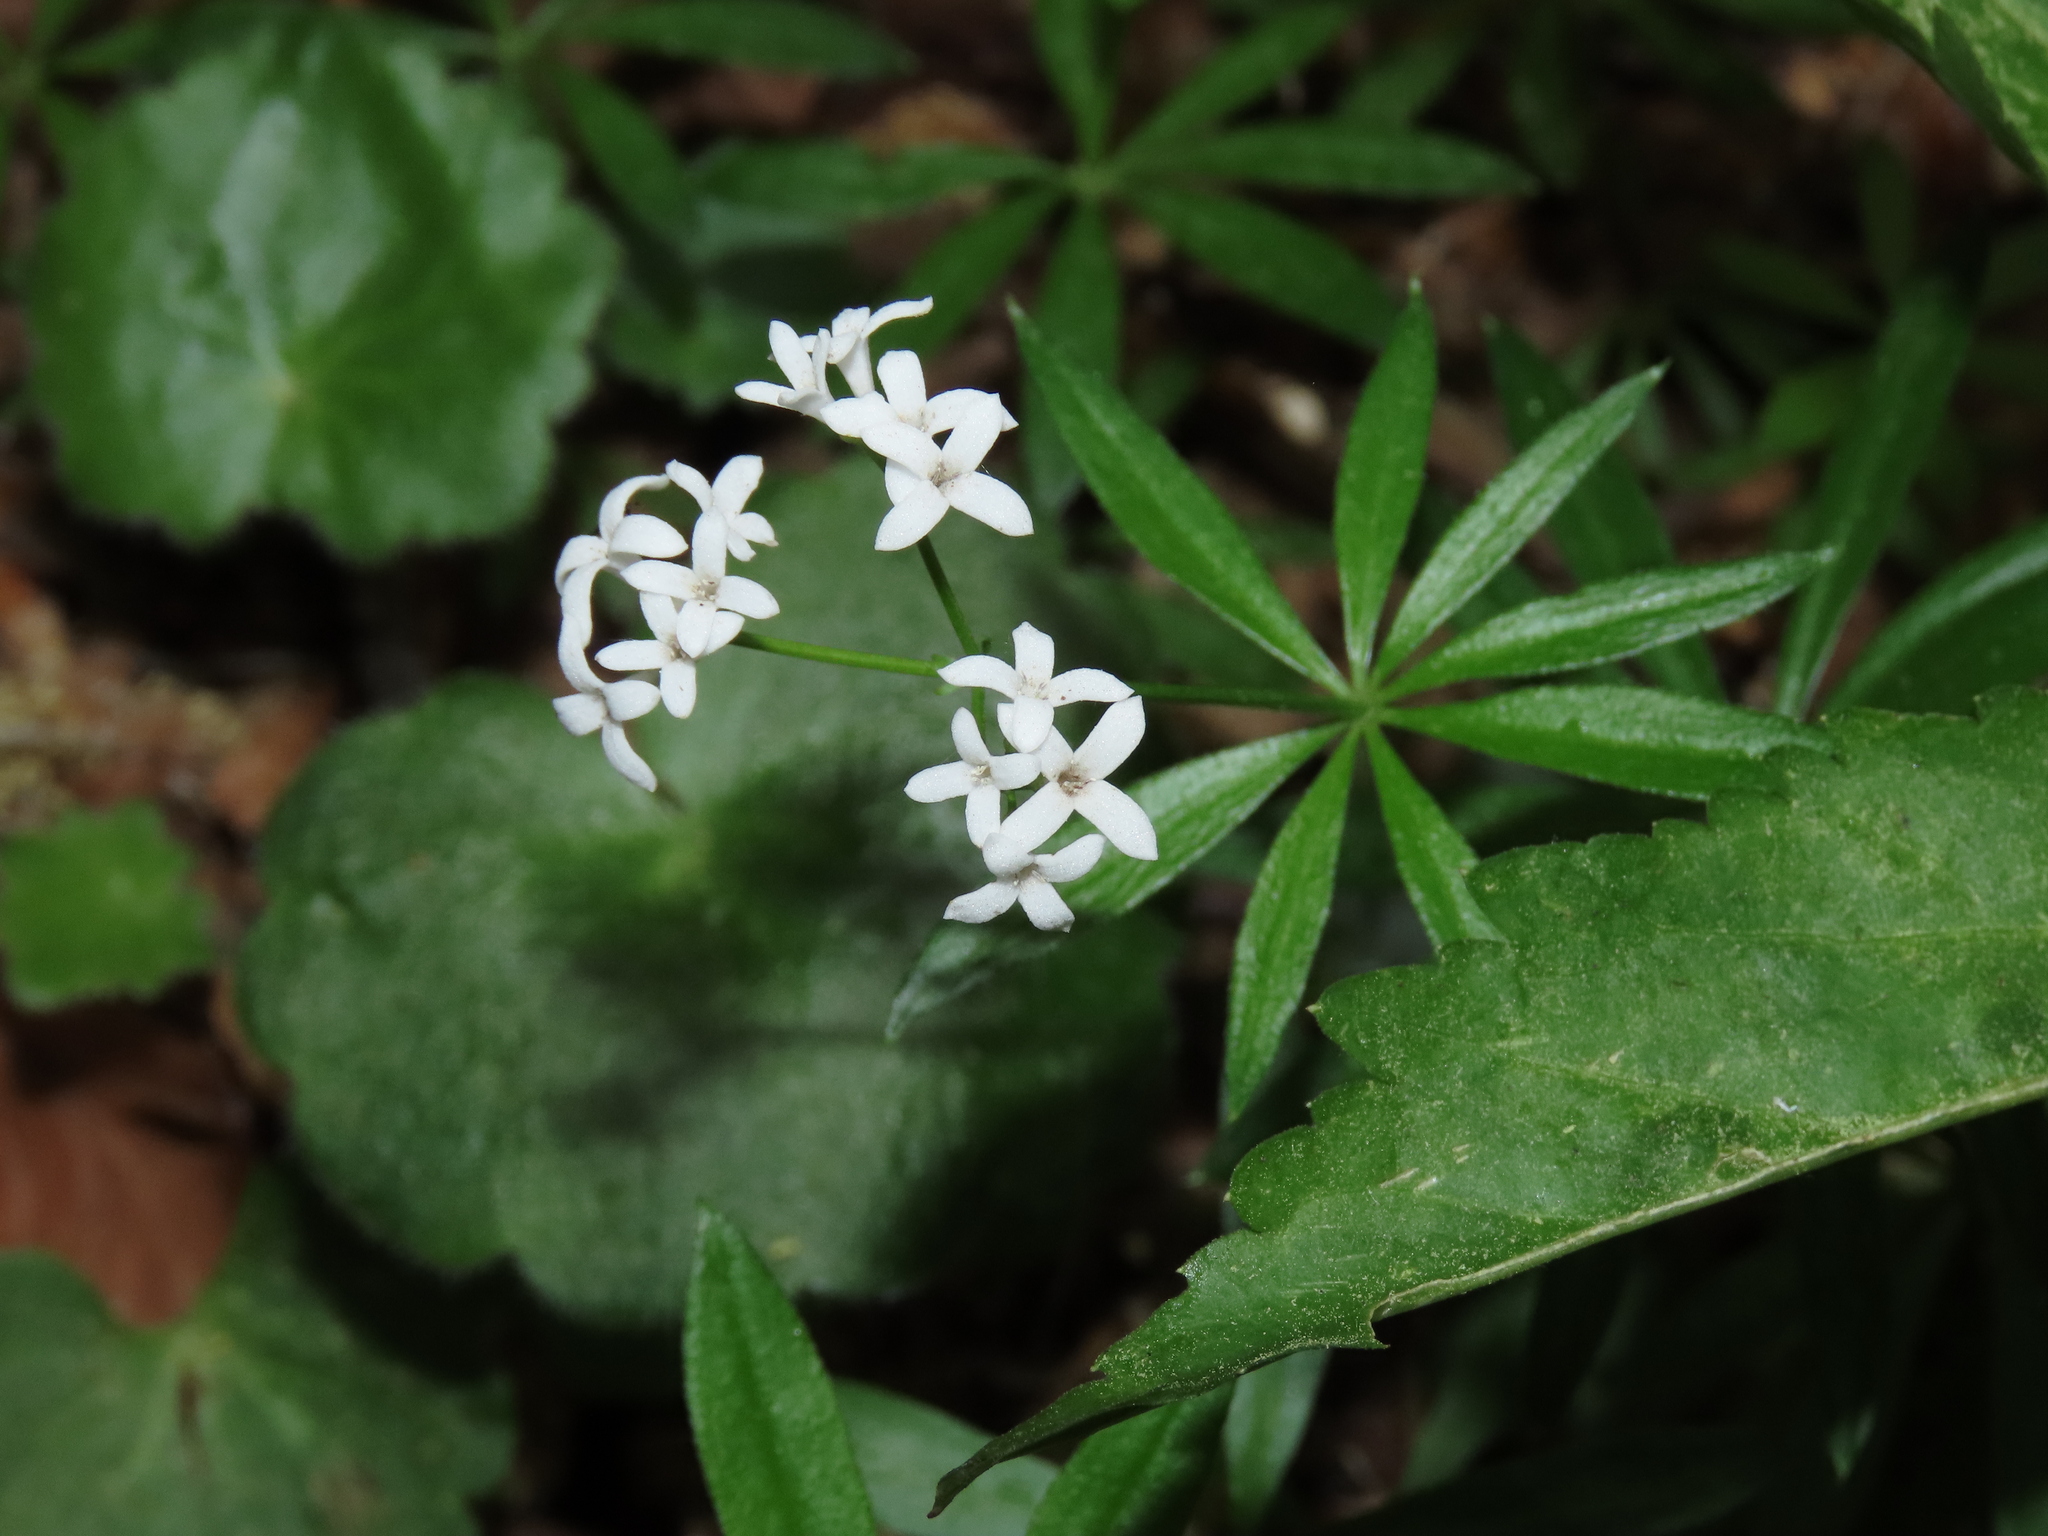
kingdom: Plantae
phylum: Tracheophyta
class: Magnoliopsida
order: Gentianales
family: Rubiaceae
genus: Galium
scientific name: Galium odoratum
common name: Sweet woodruff
